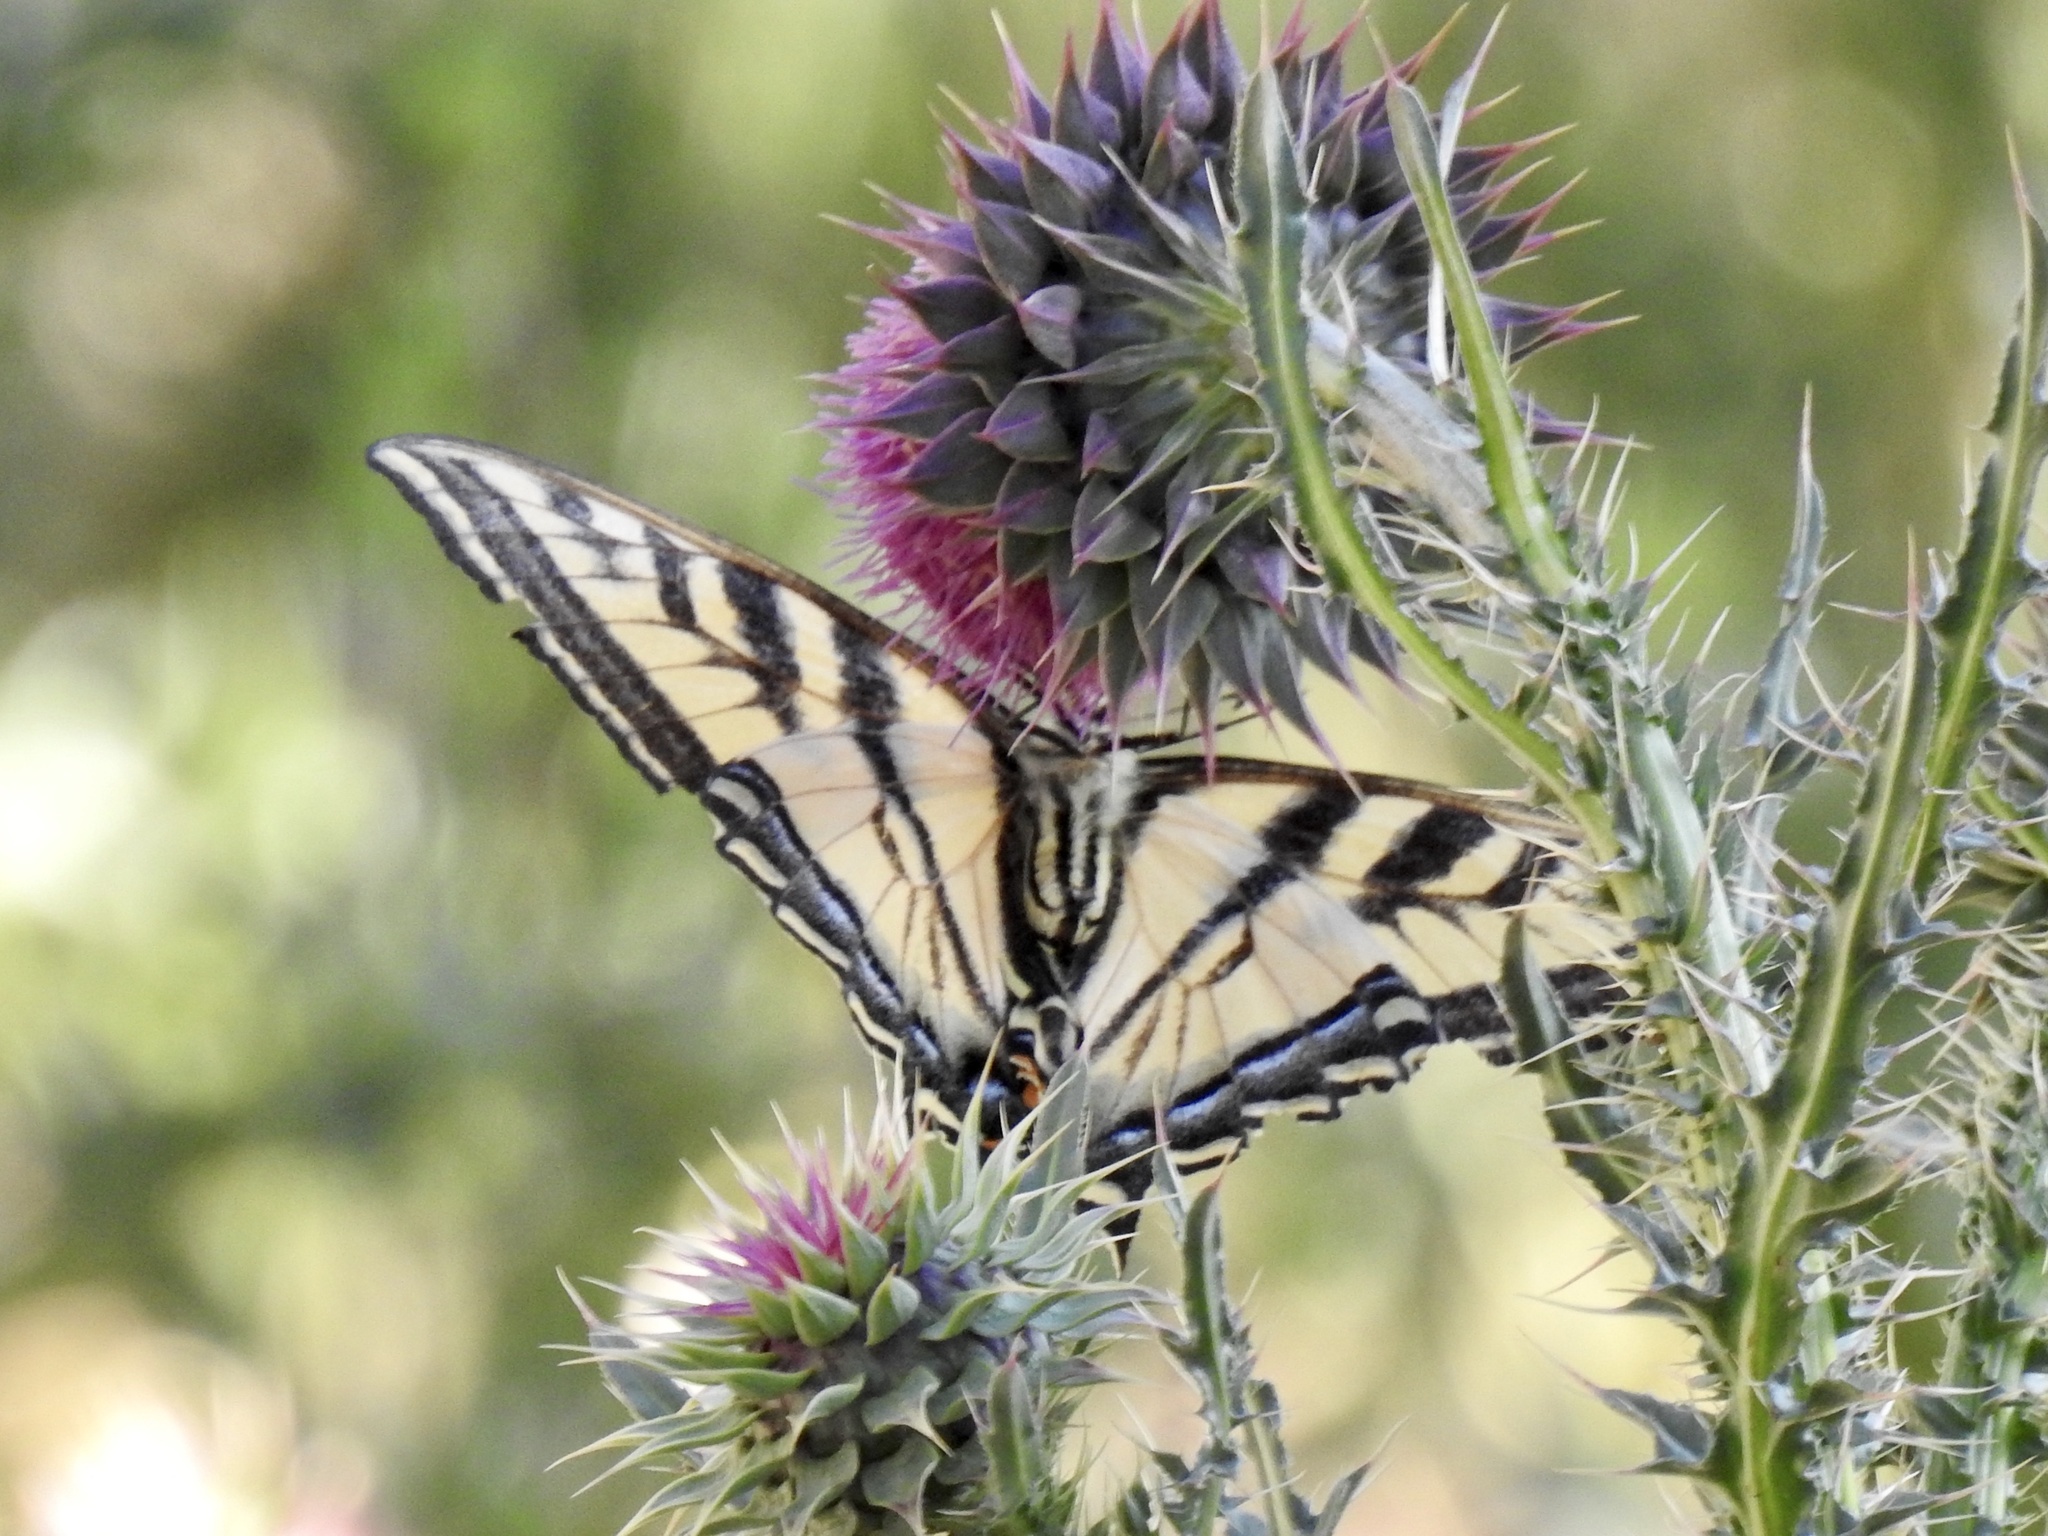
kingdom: Animalia
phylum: Arthropoda
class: Insecta
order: Lepidoptera
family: Papilionidae
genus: Papilio
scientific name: Papilio rutulus
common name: Western tiger swallowtail
